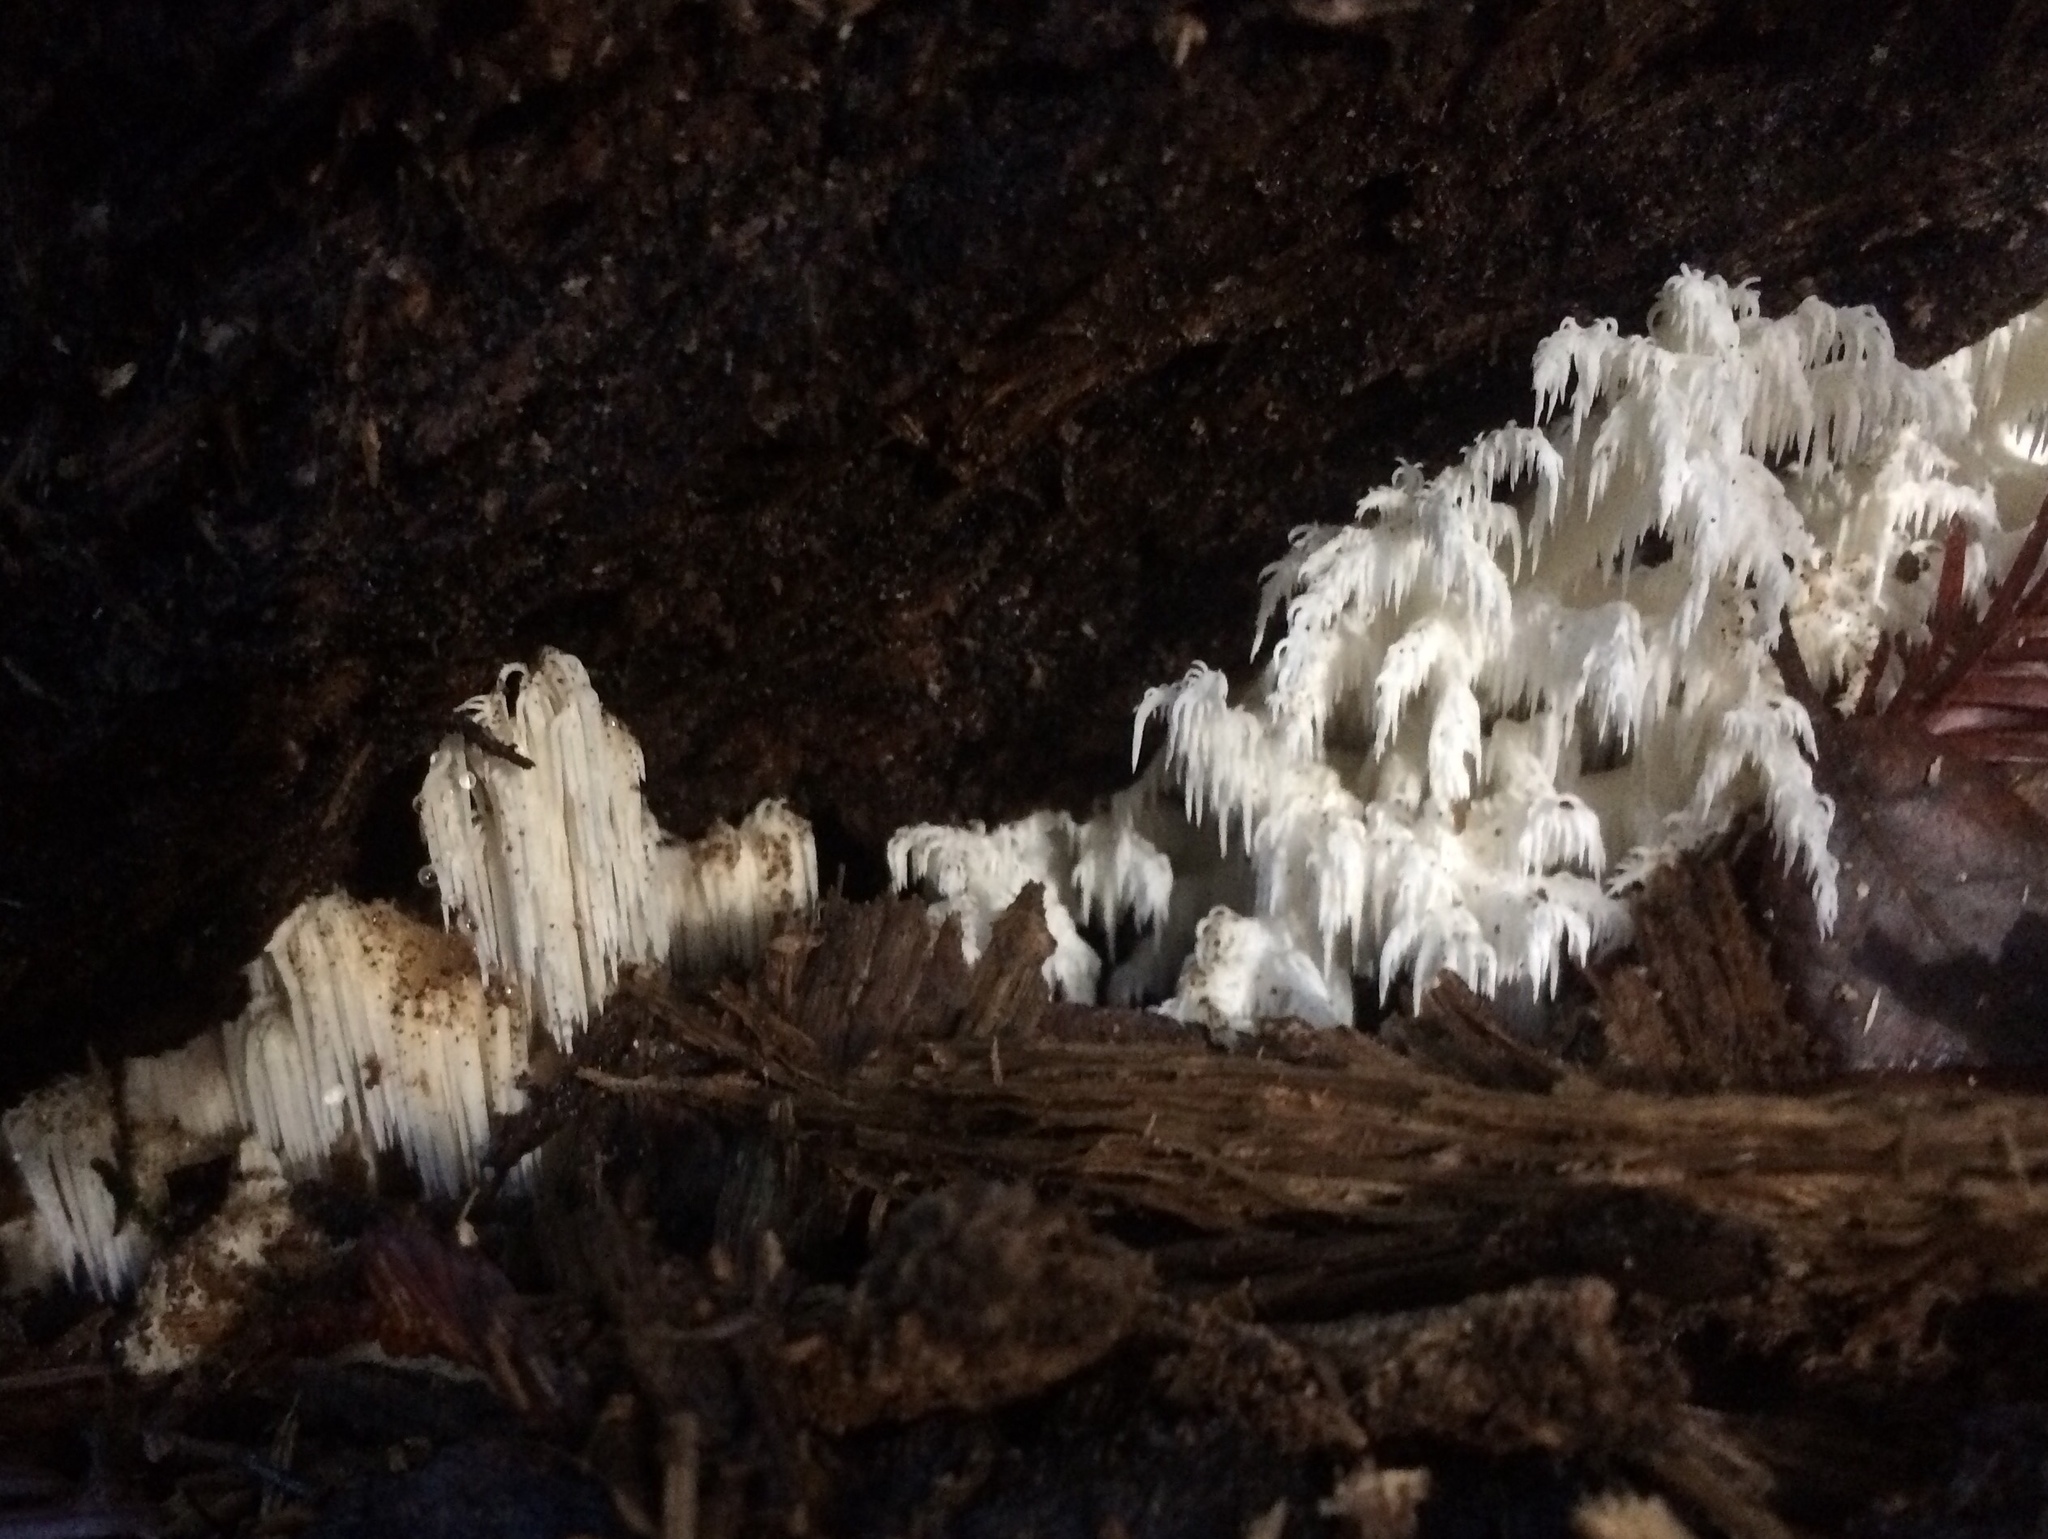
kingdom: Fungi
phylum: Basidiomycota
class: Agaricomycetes
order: Russulales
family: Hericiaceae
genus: Hericium
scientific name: Hericium coralloides
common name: Coral tooth
